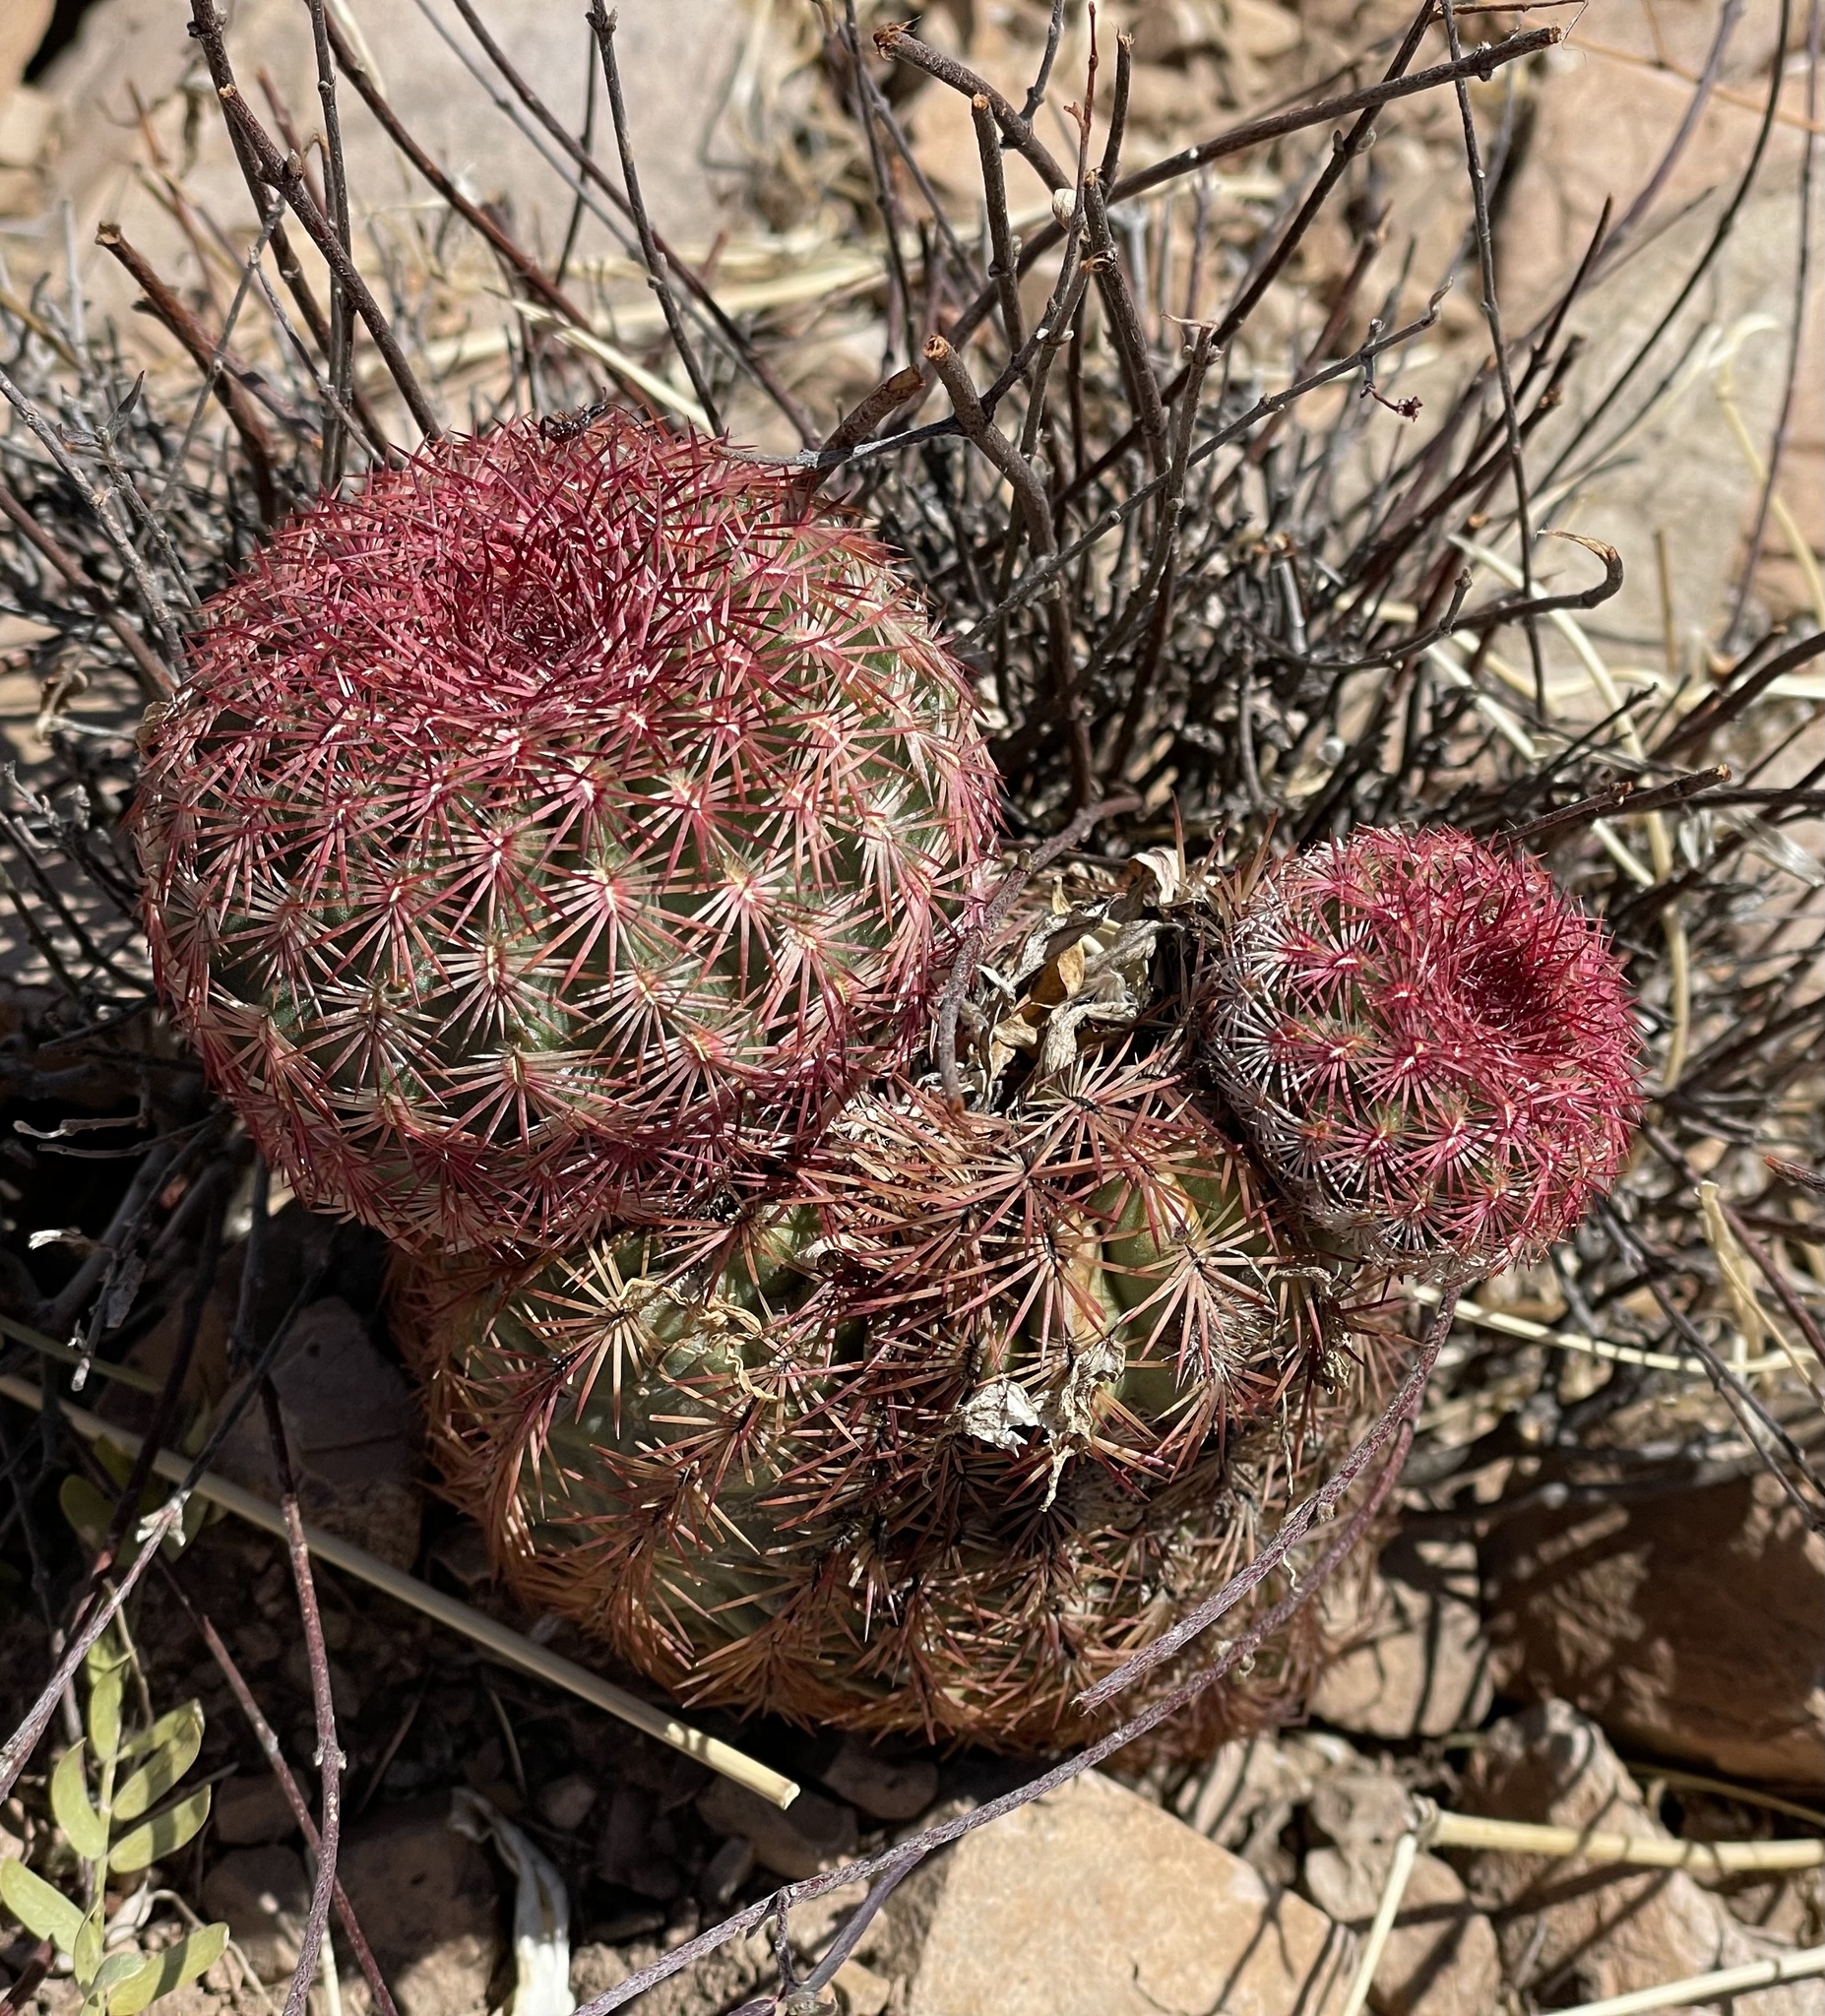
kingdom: Plantae
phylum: Tracheophyta
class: Magnoliopsida
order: Caryophyllales
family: Cactaceae
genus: Echinocereus
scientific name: Echinocereus rigidissimus
